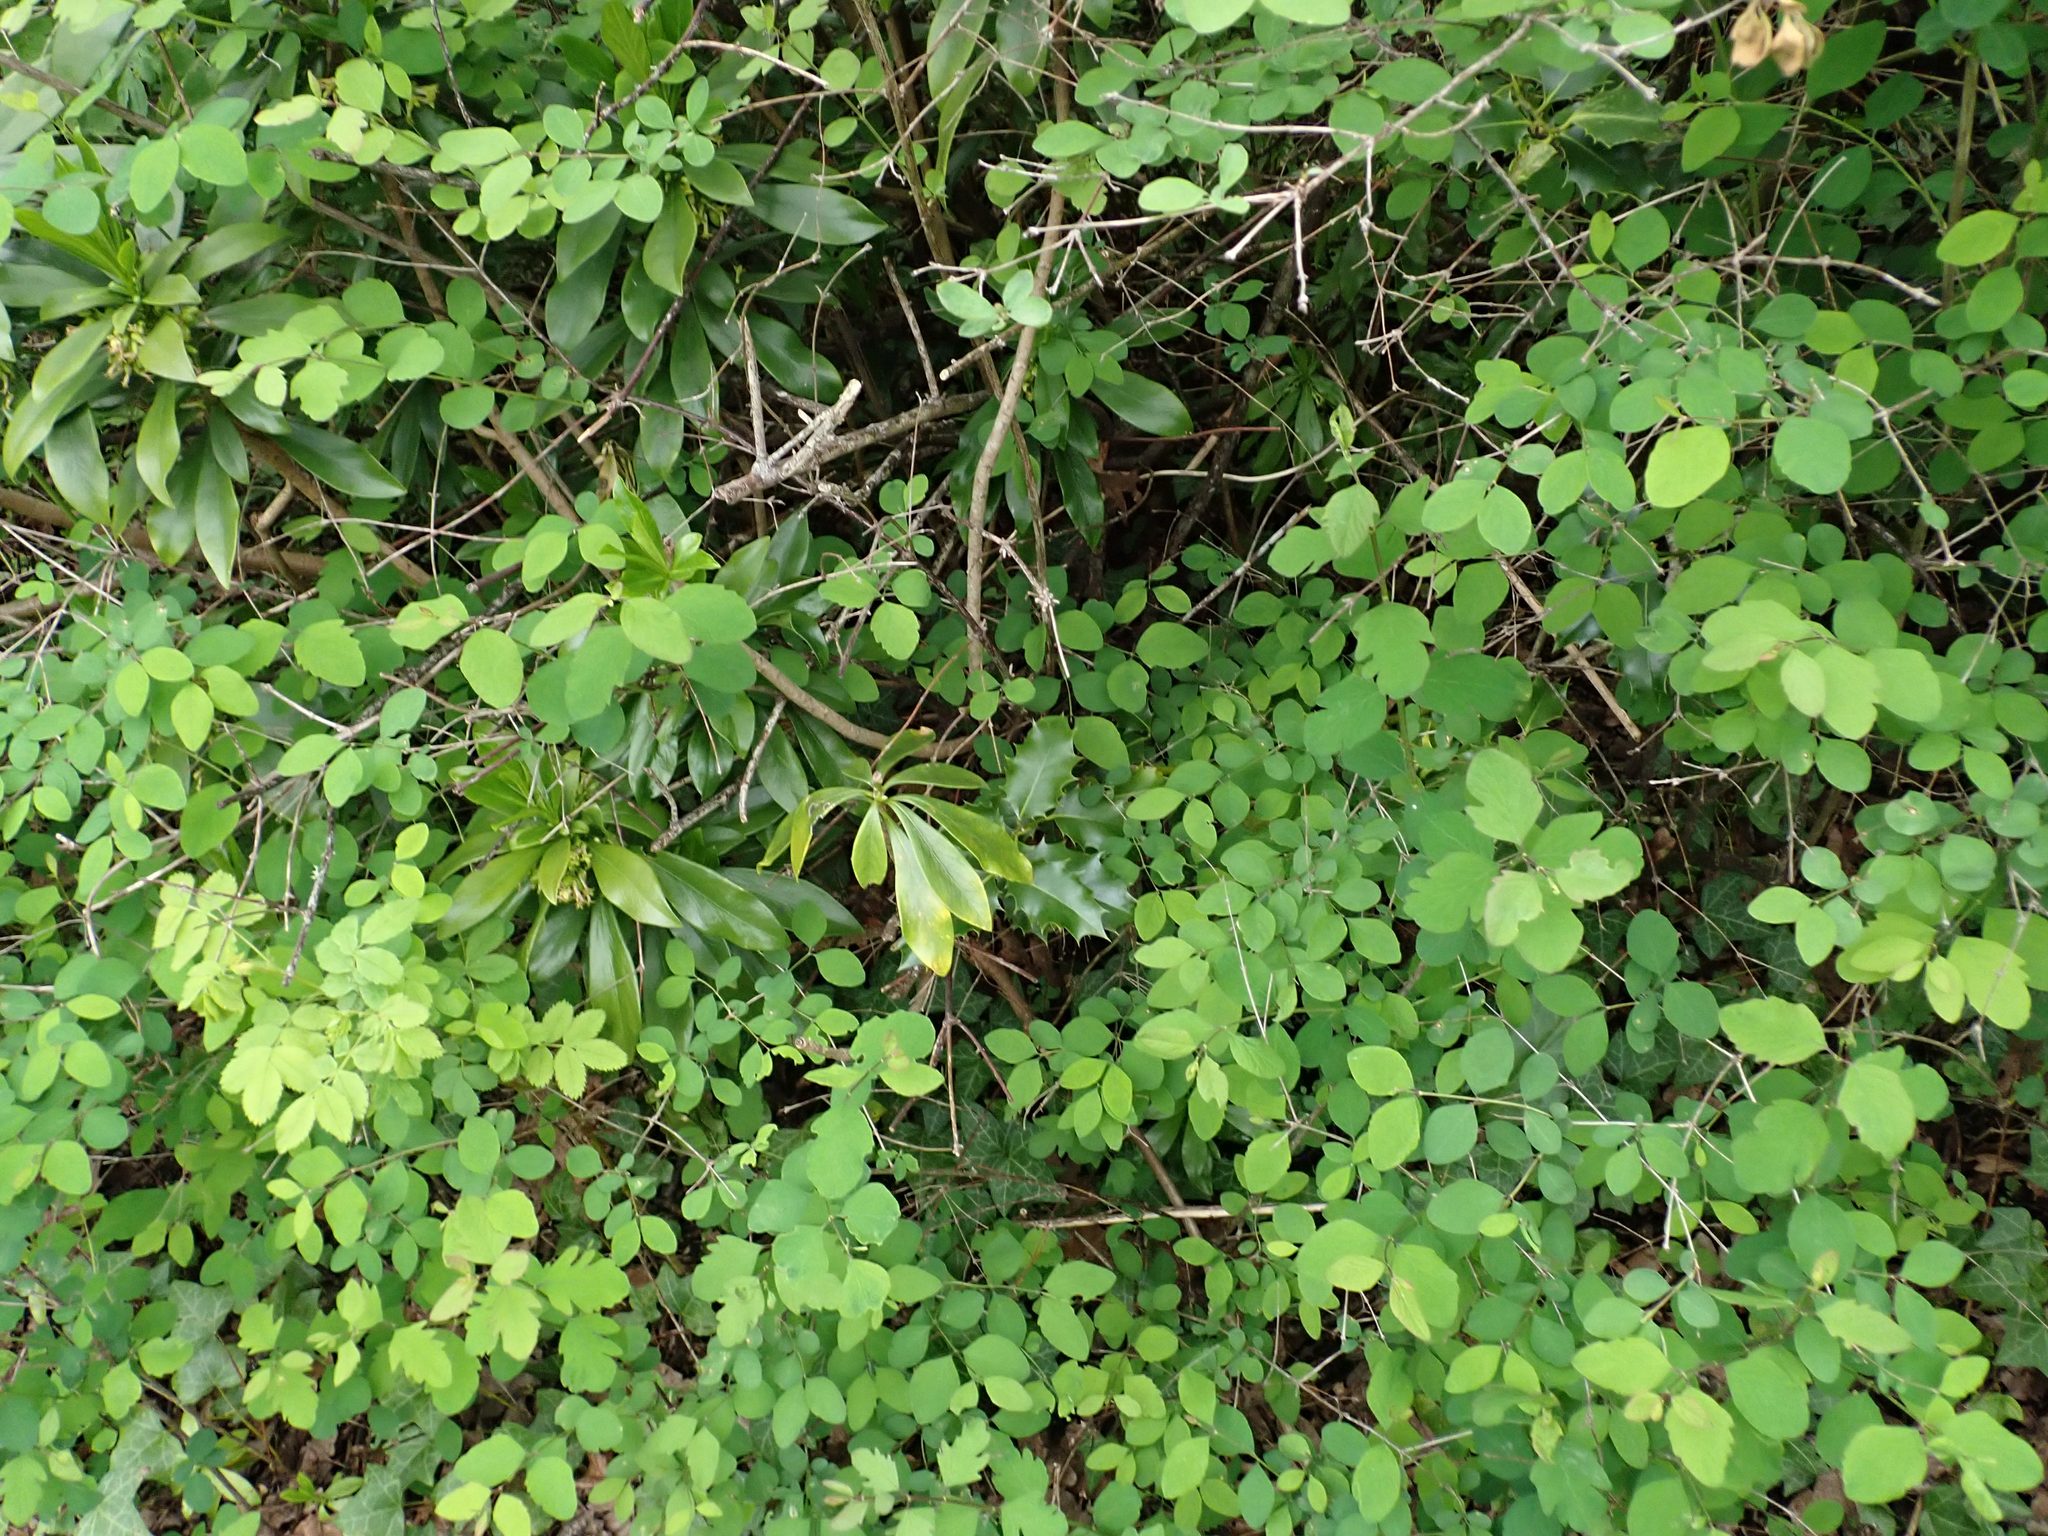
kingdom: Plantae
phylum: Tracheophyta
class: Magnoliopsida
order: Aquifoliales
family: Aquifoliaceae
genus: Ilex
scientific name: Ilex aquifolium
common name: English holly
